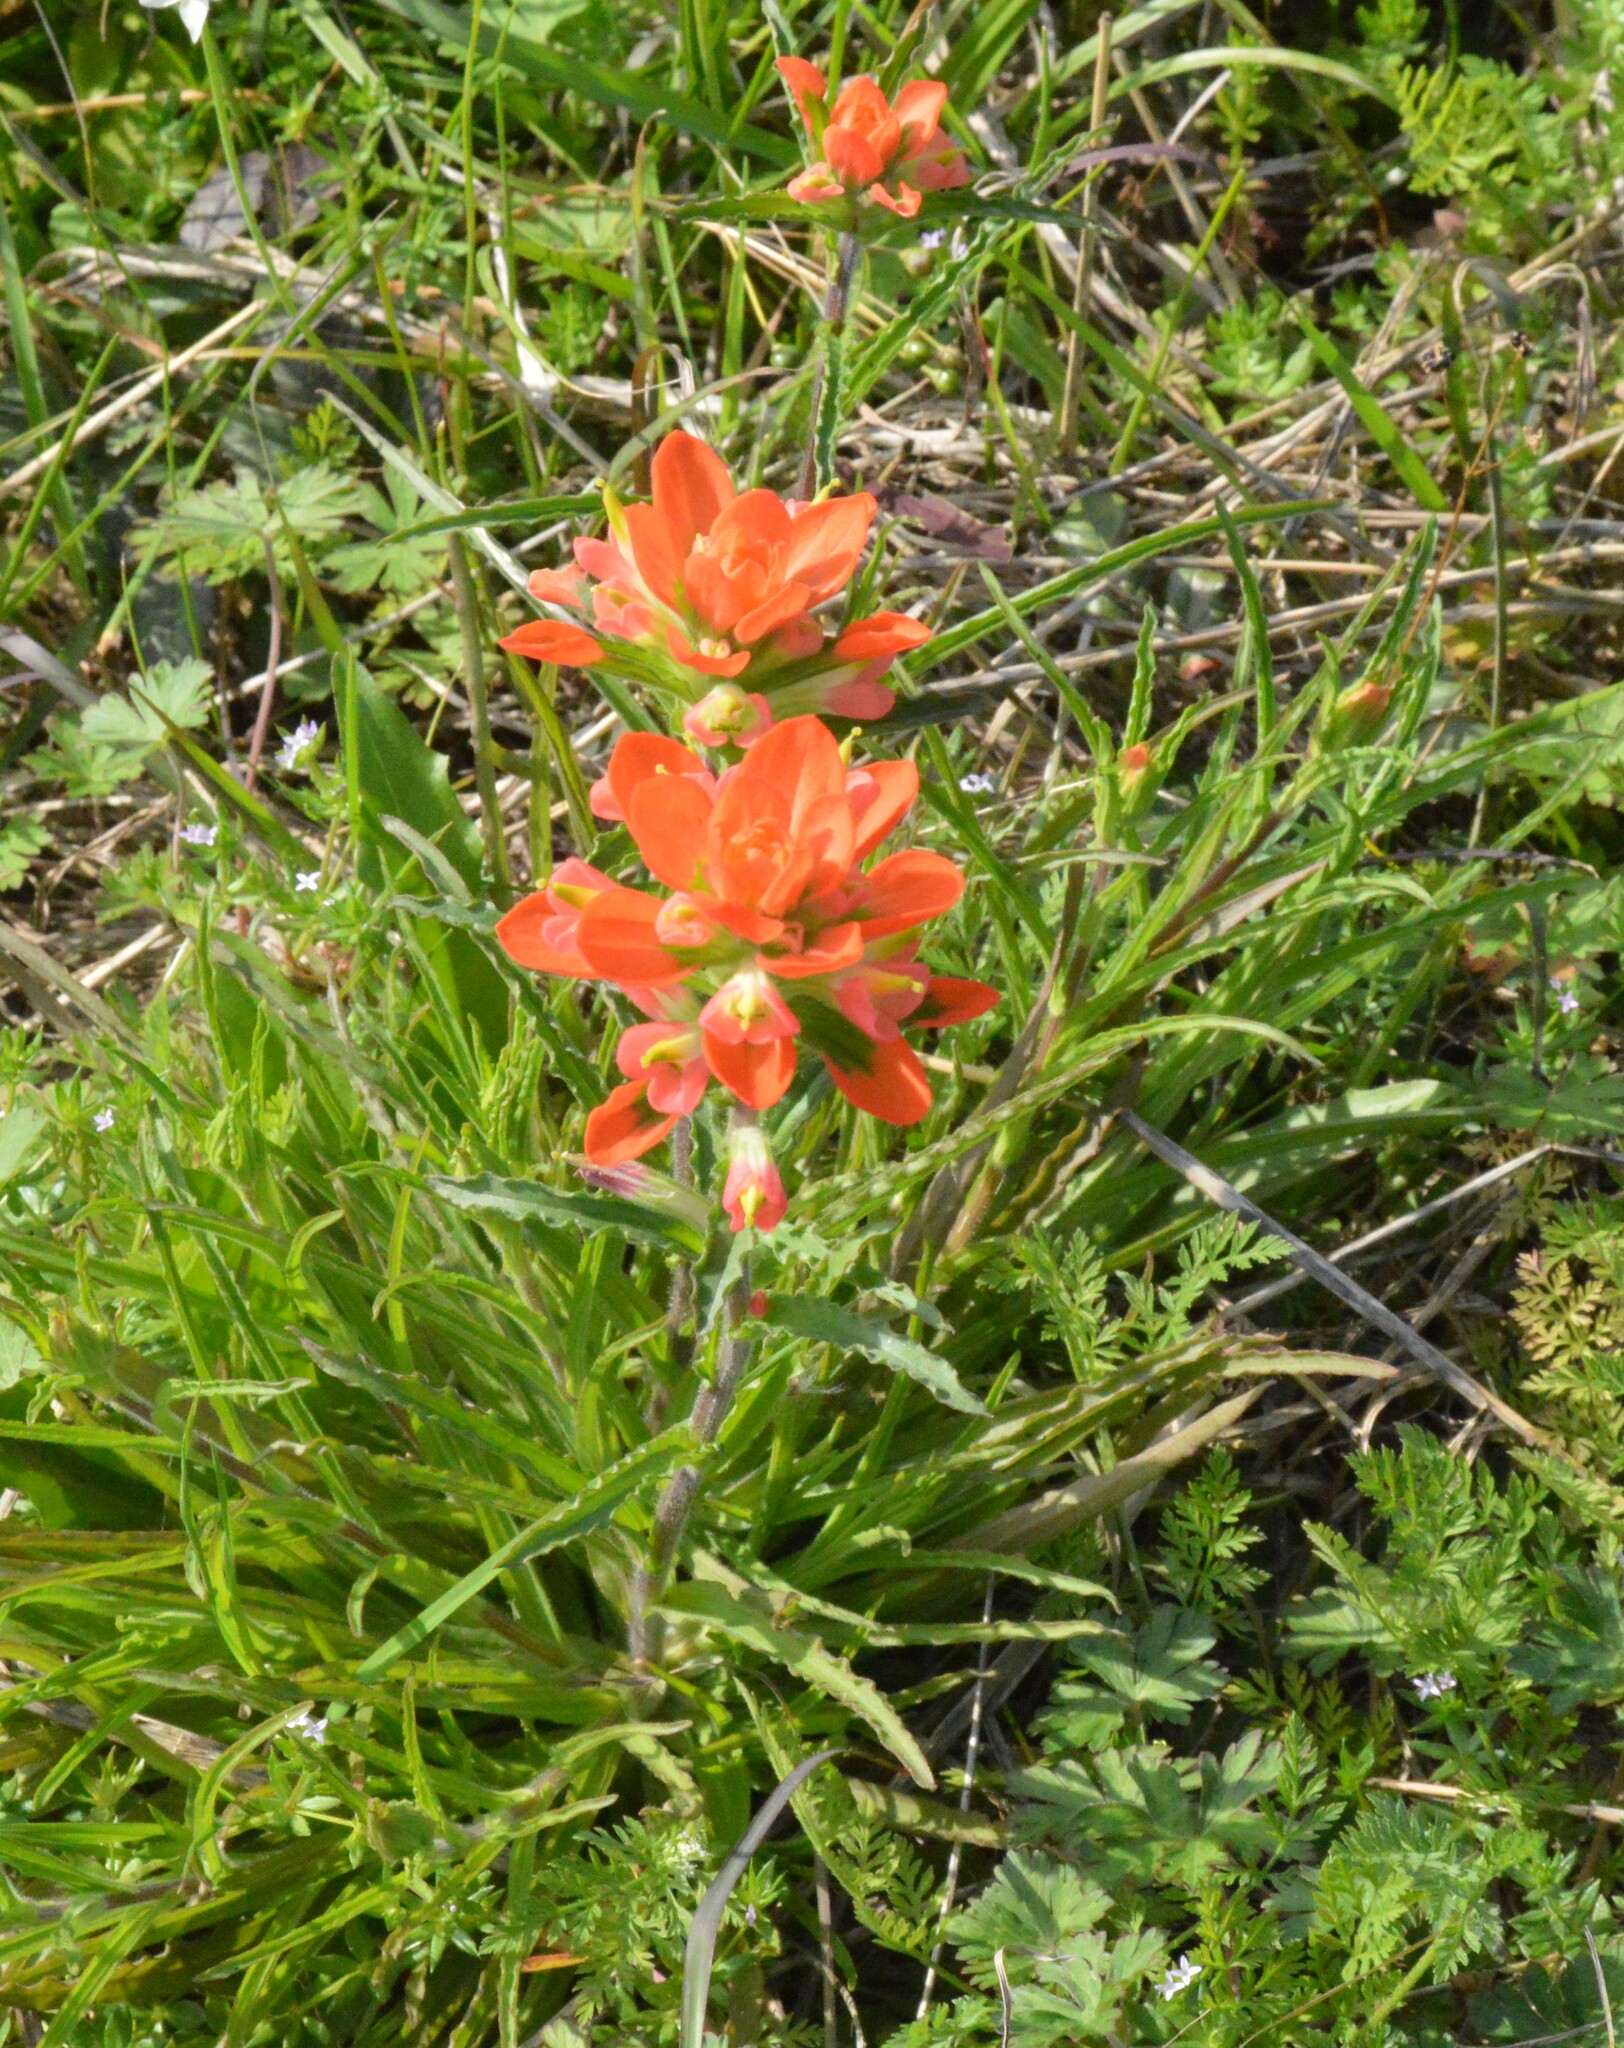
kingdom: Plantae
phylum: Tracheophyta
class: Magnoliopsida
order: Lamiales
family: Orobanchaceae
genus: Castilleja
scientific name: Castilleja indivisa
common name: Texas paintbrush
